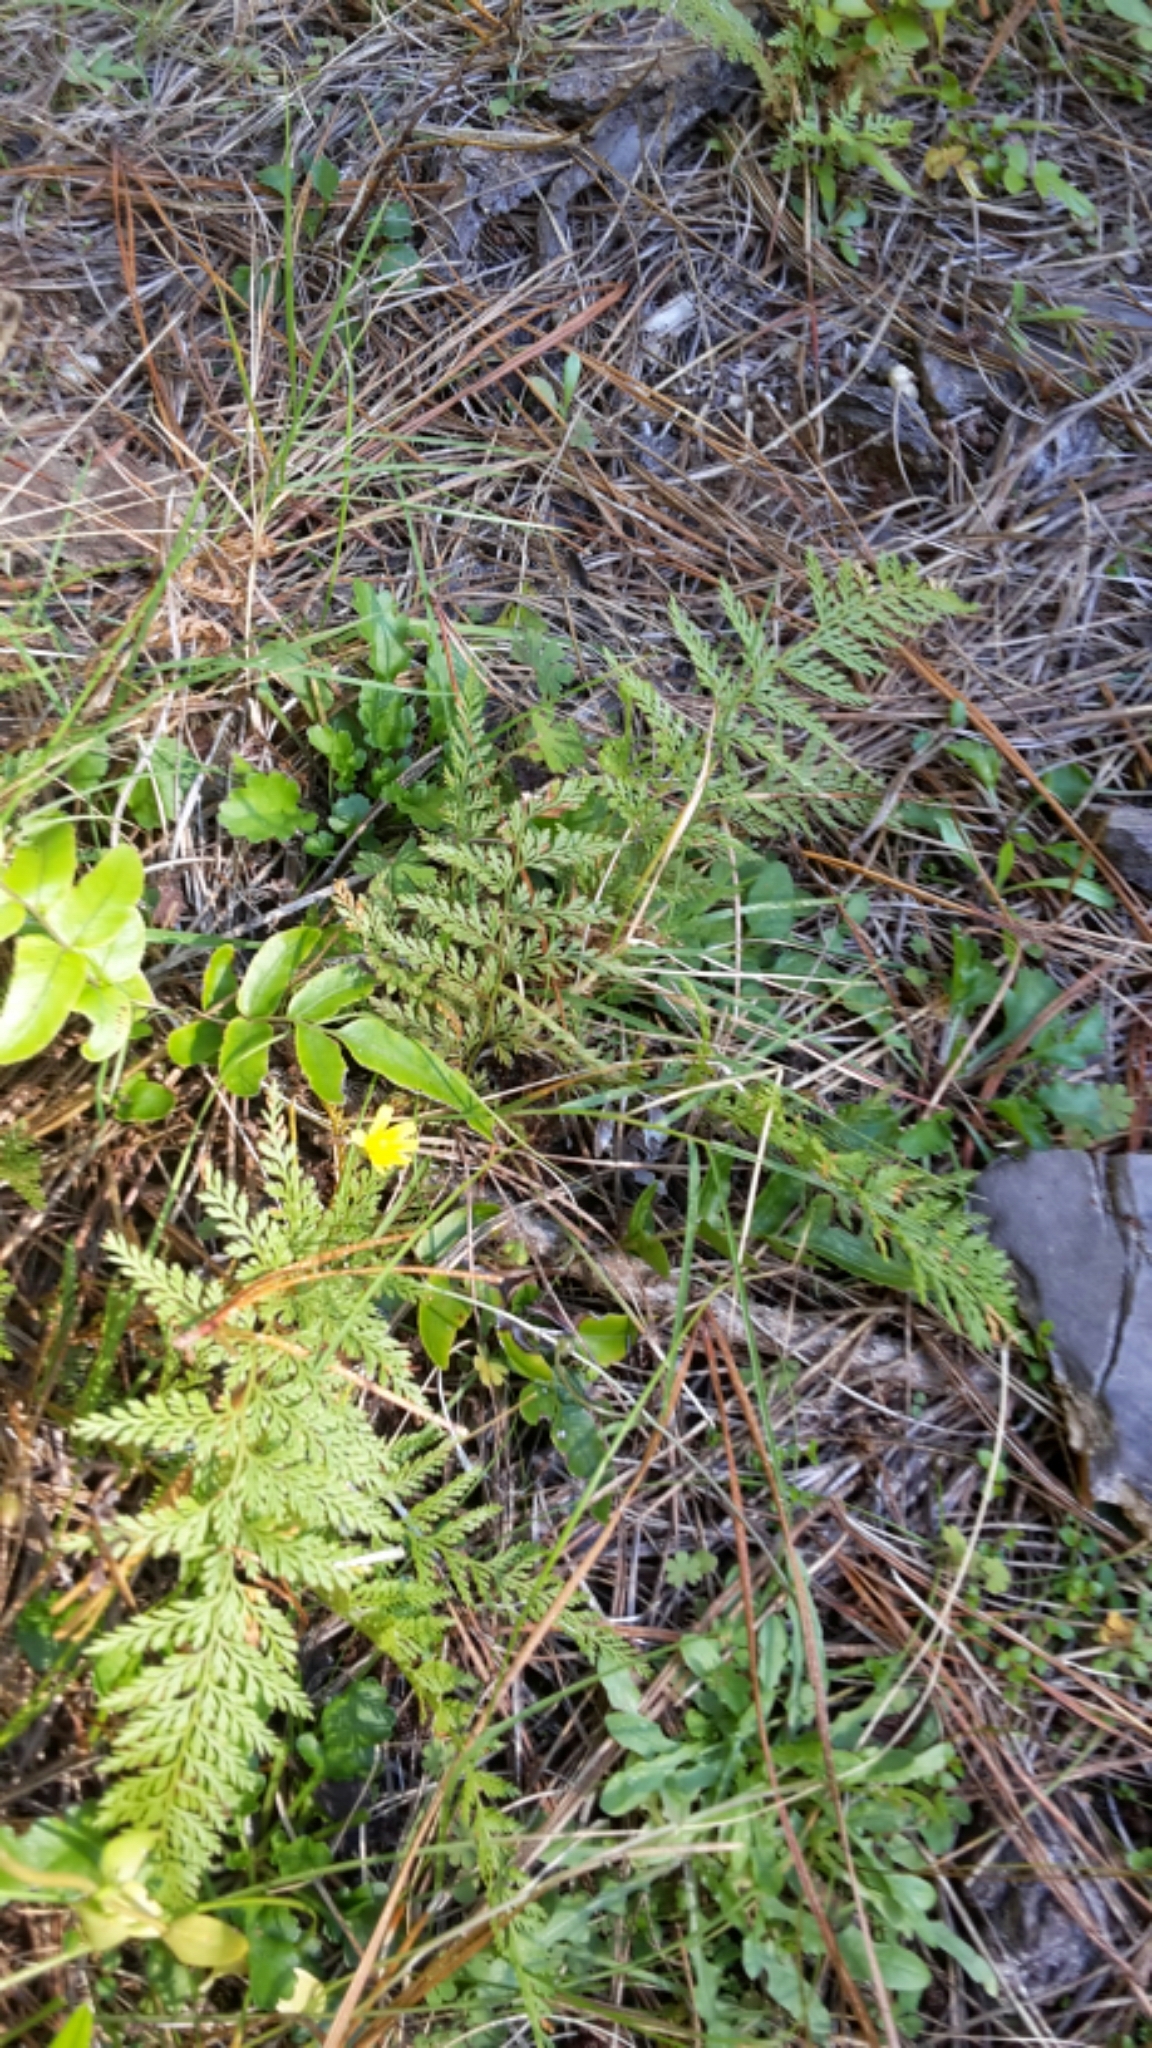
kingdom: Plantae
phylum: Tracheophyta
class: Polypodiopsida
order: Polypodiales
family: Dennstaedtiaceae
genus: Paesia
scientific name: Paesia scaberula
